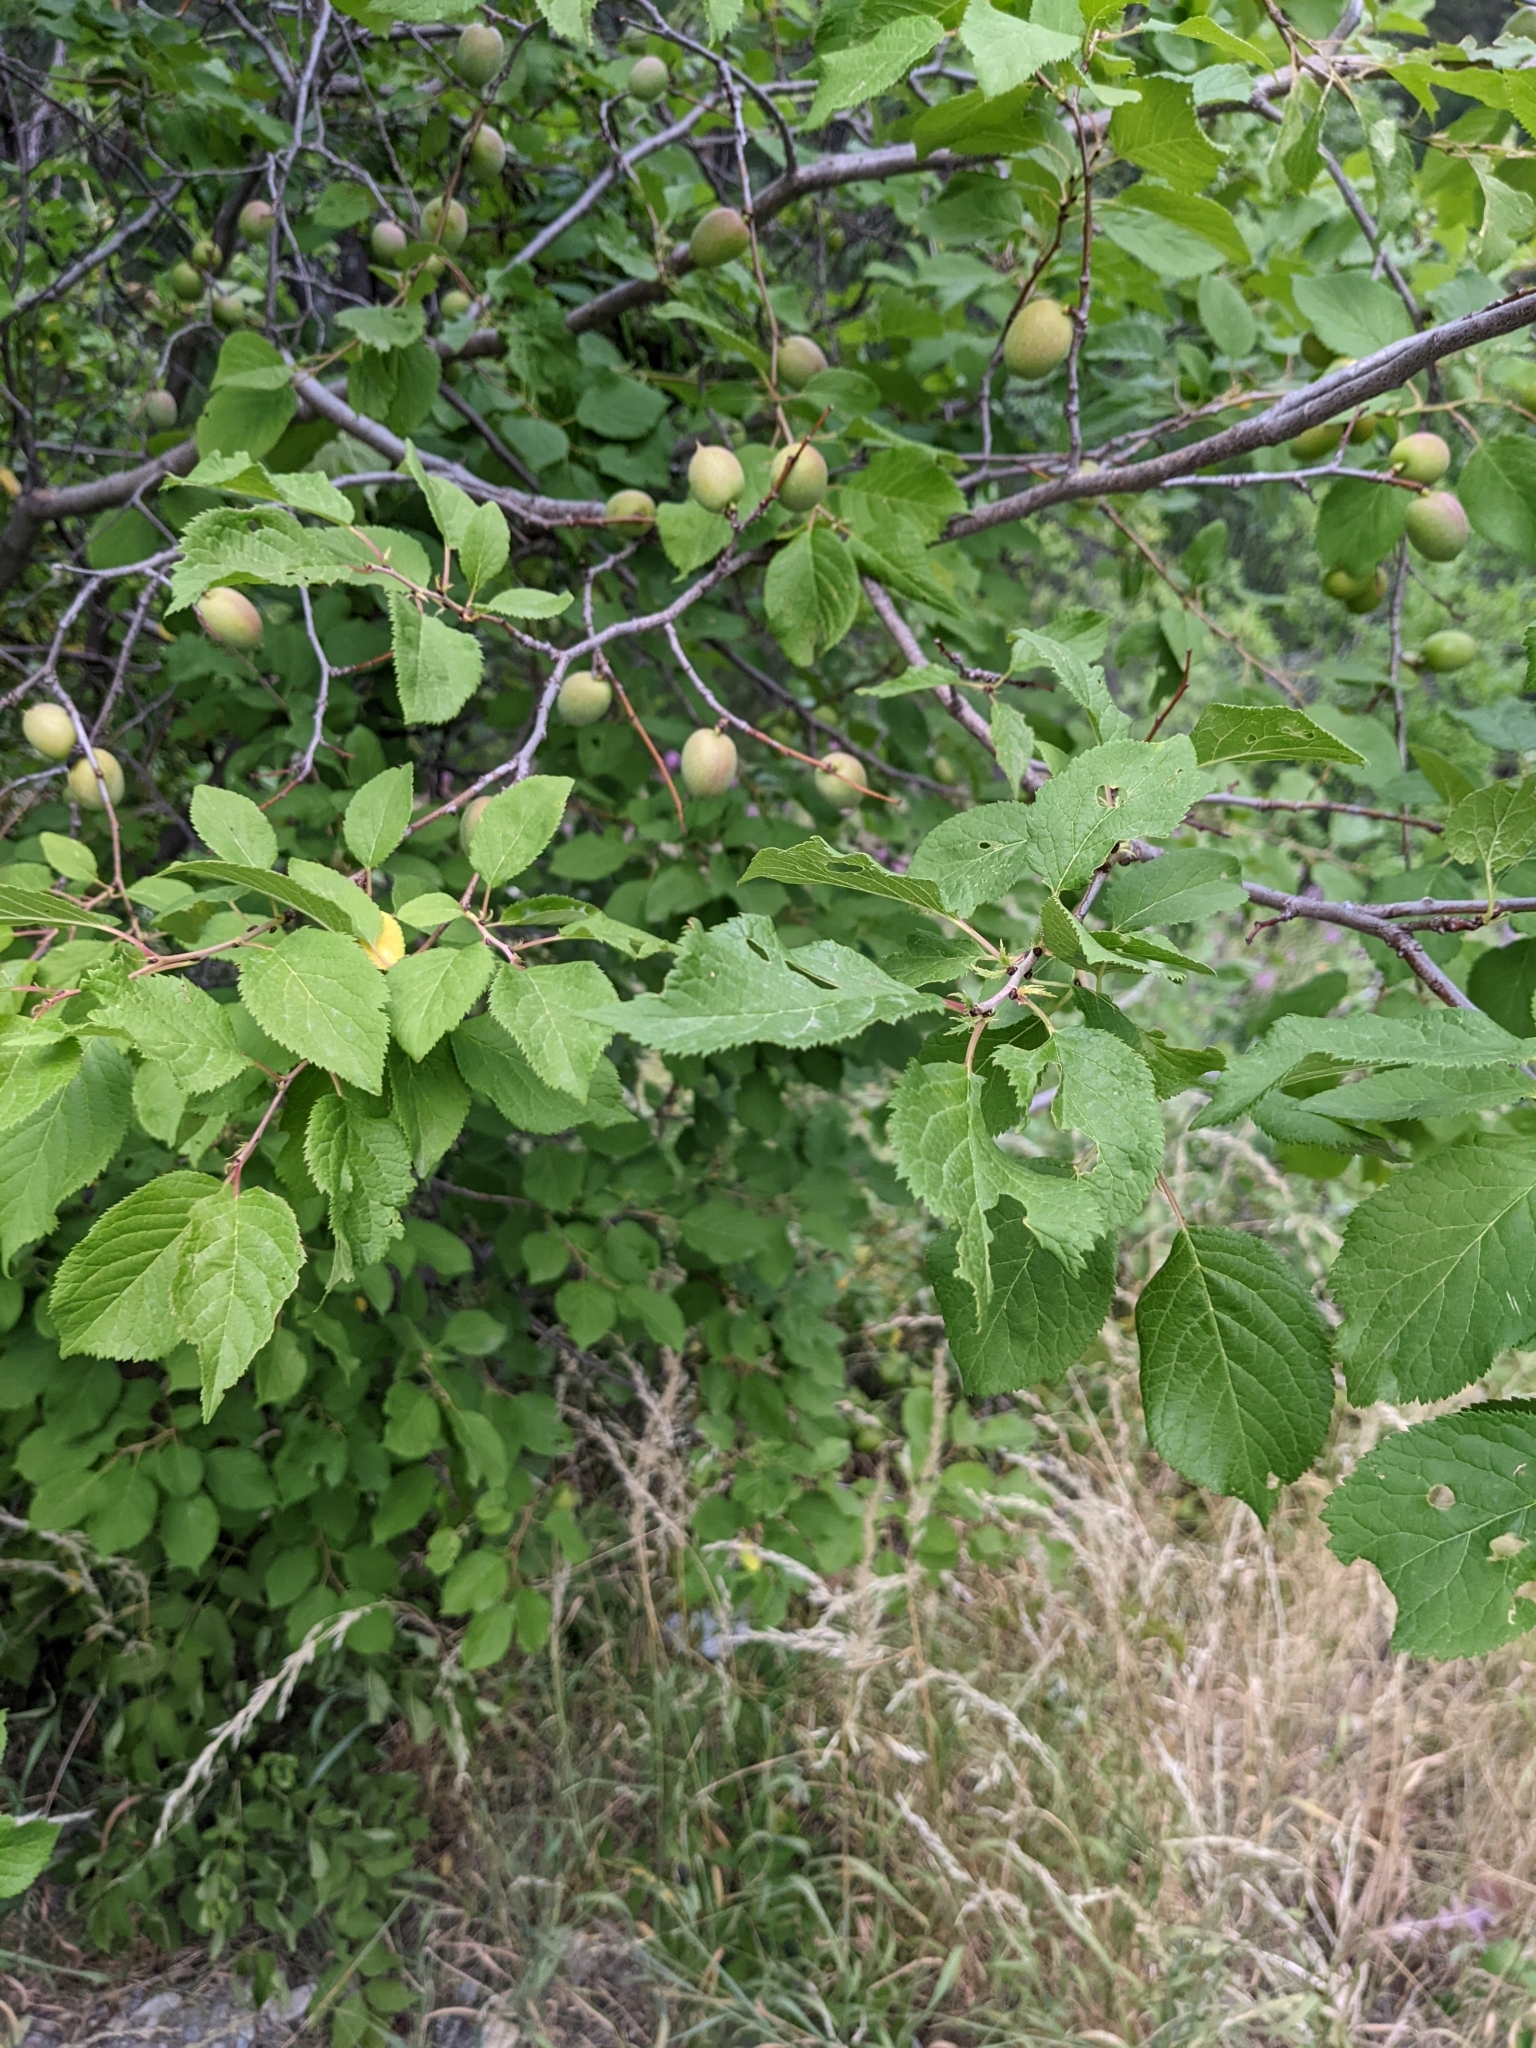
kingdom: Plantae
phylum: Tracheophyta
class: Magnoliopsida
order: Rosales
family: Rosaceae
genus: Prunus
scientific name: Prunus brigantina
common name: Briançon apricot
